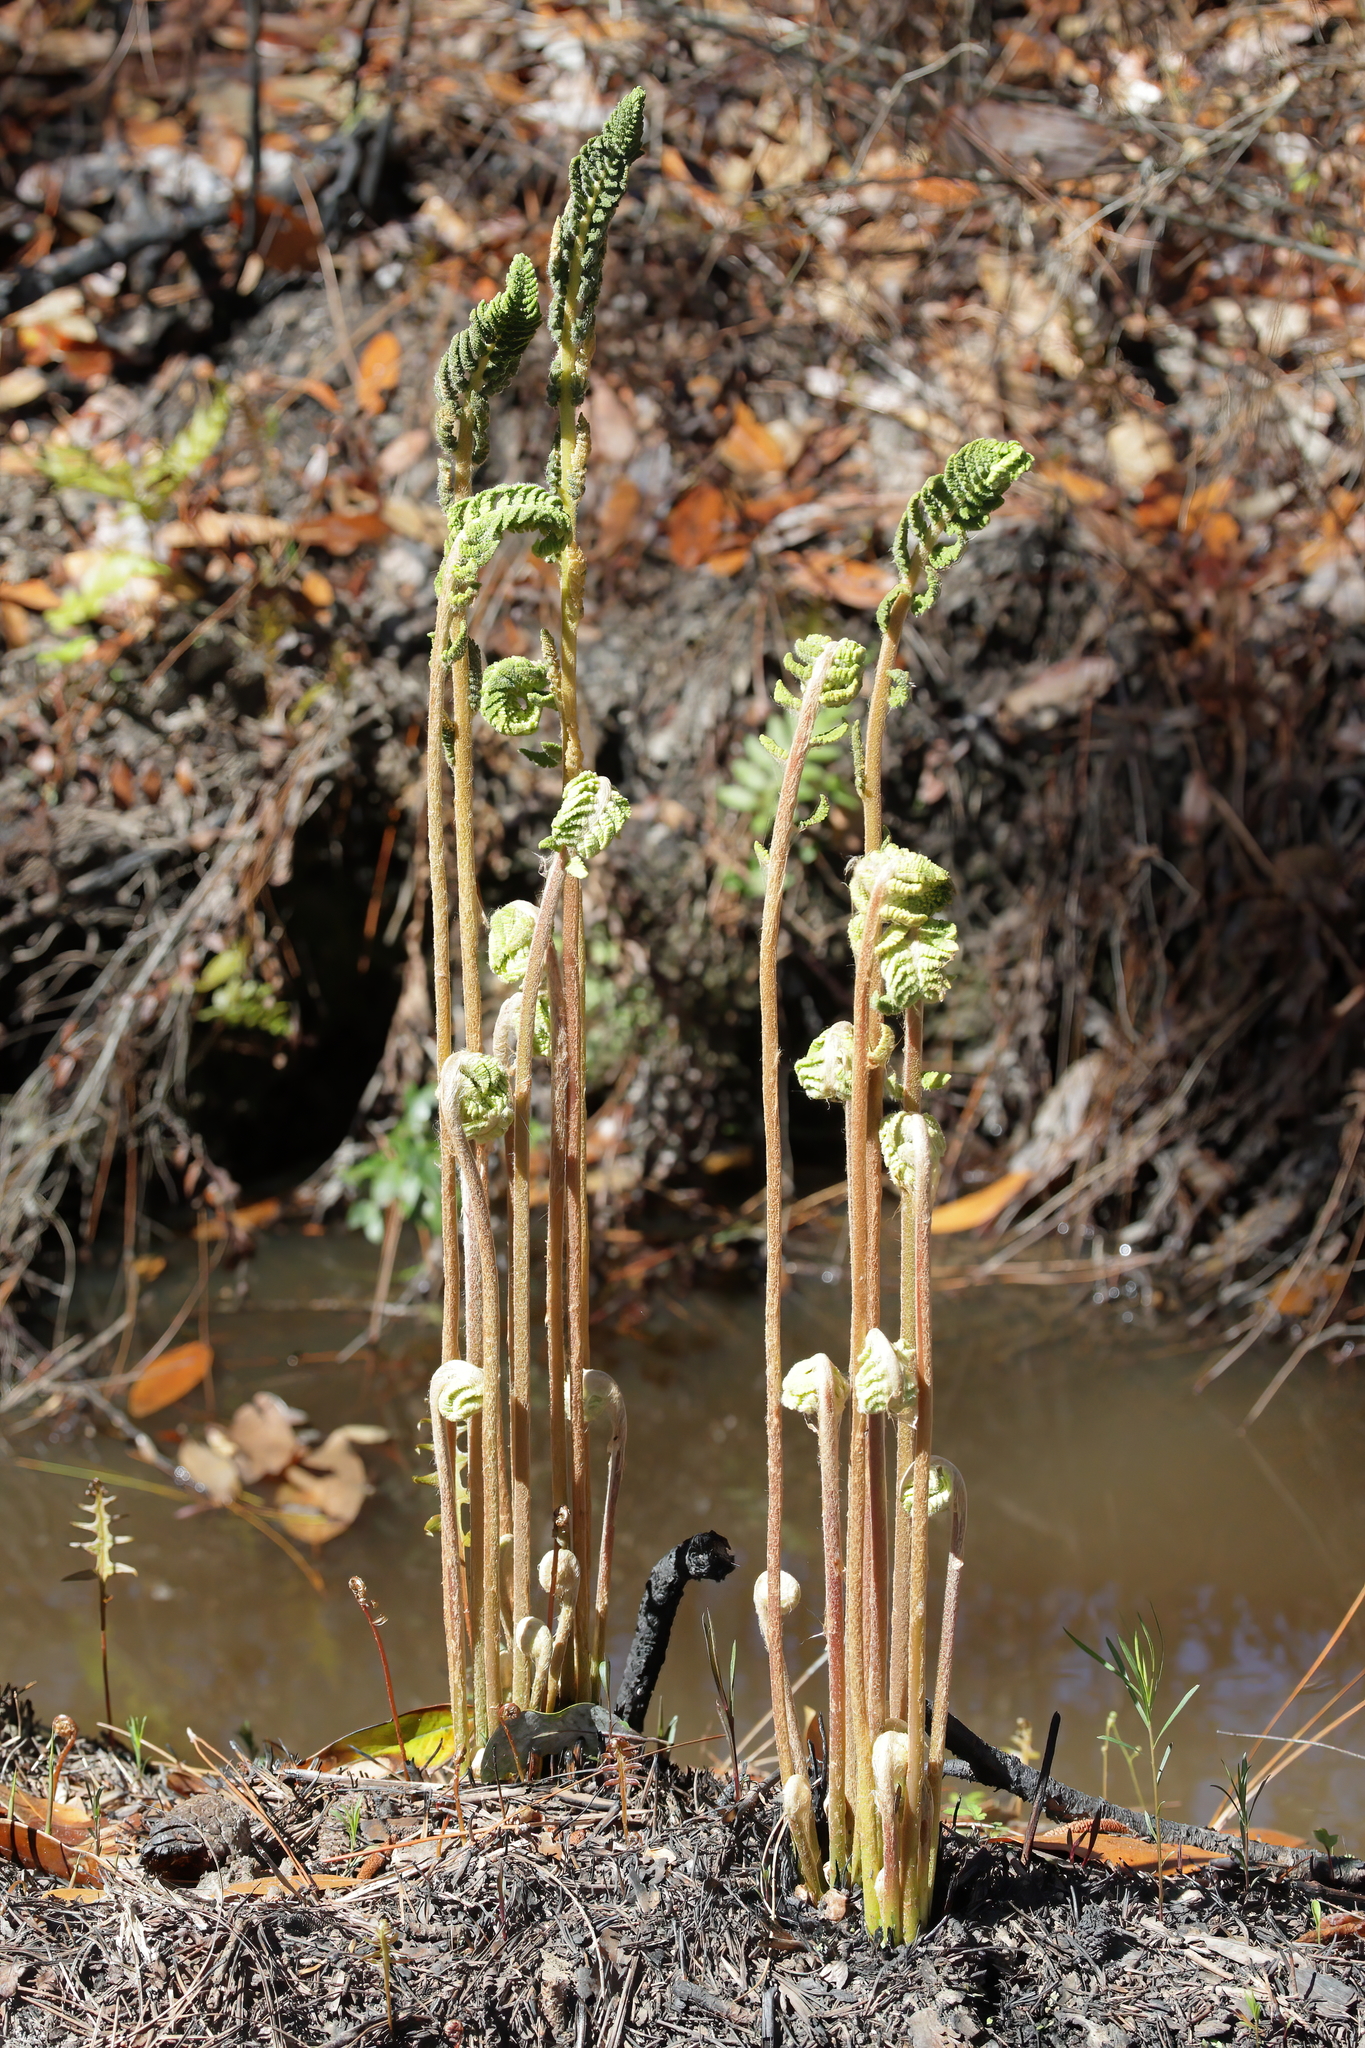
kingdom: Plantae
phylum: Tracheophyta
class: Polypodiopsida
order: Osmundales
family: Osmundaceae
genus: Osmundastrum
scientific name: Osmundastrum cinnamomeum
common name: Cinnamon fern
